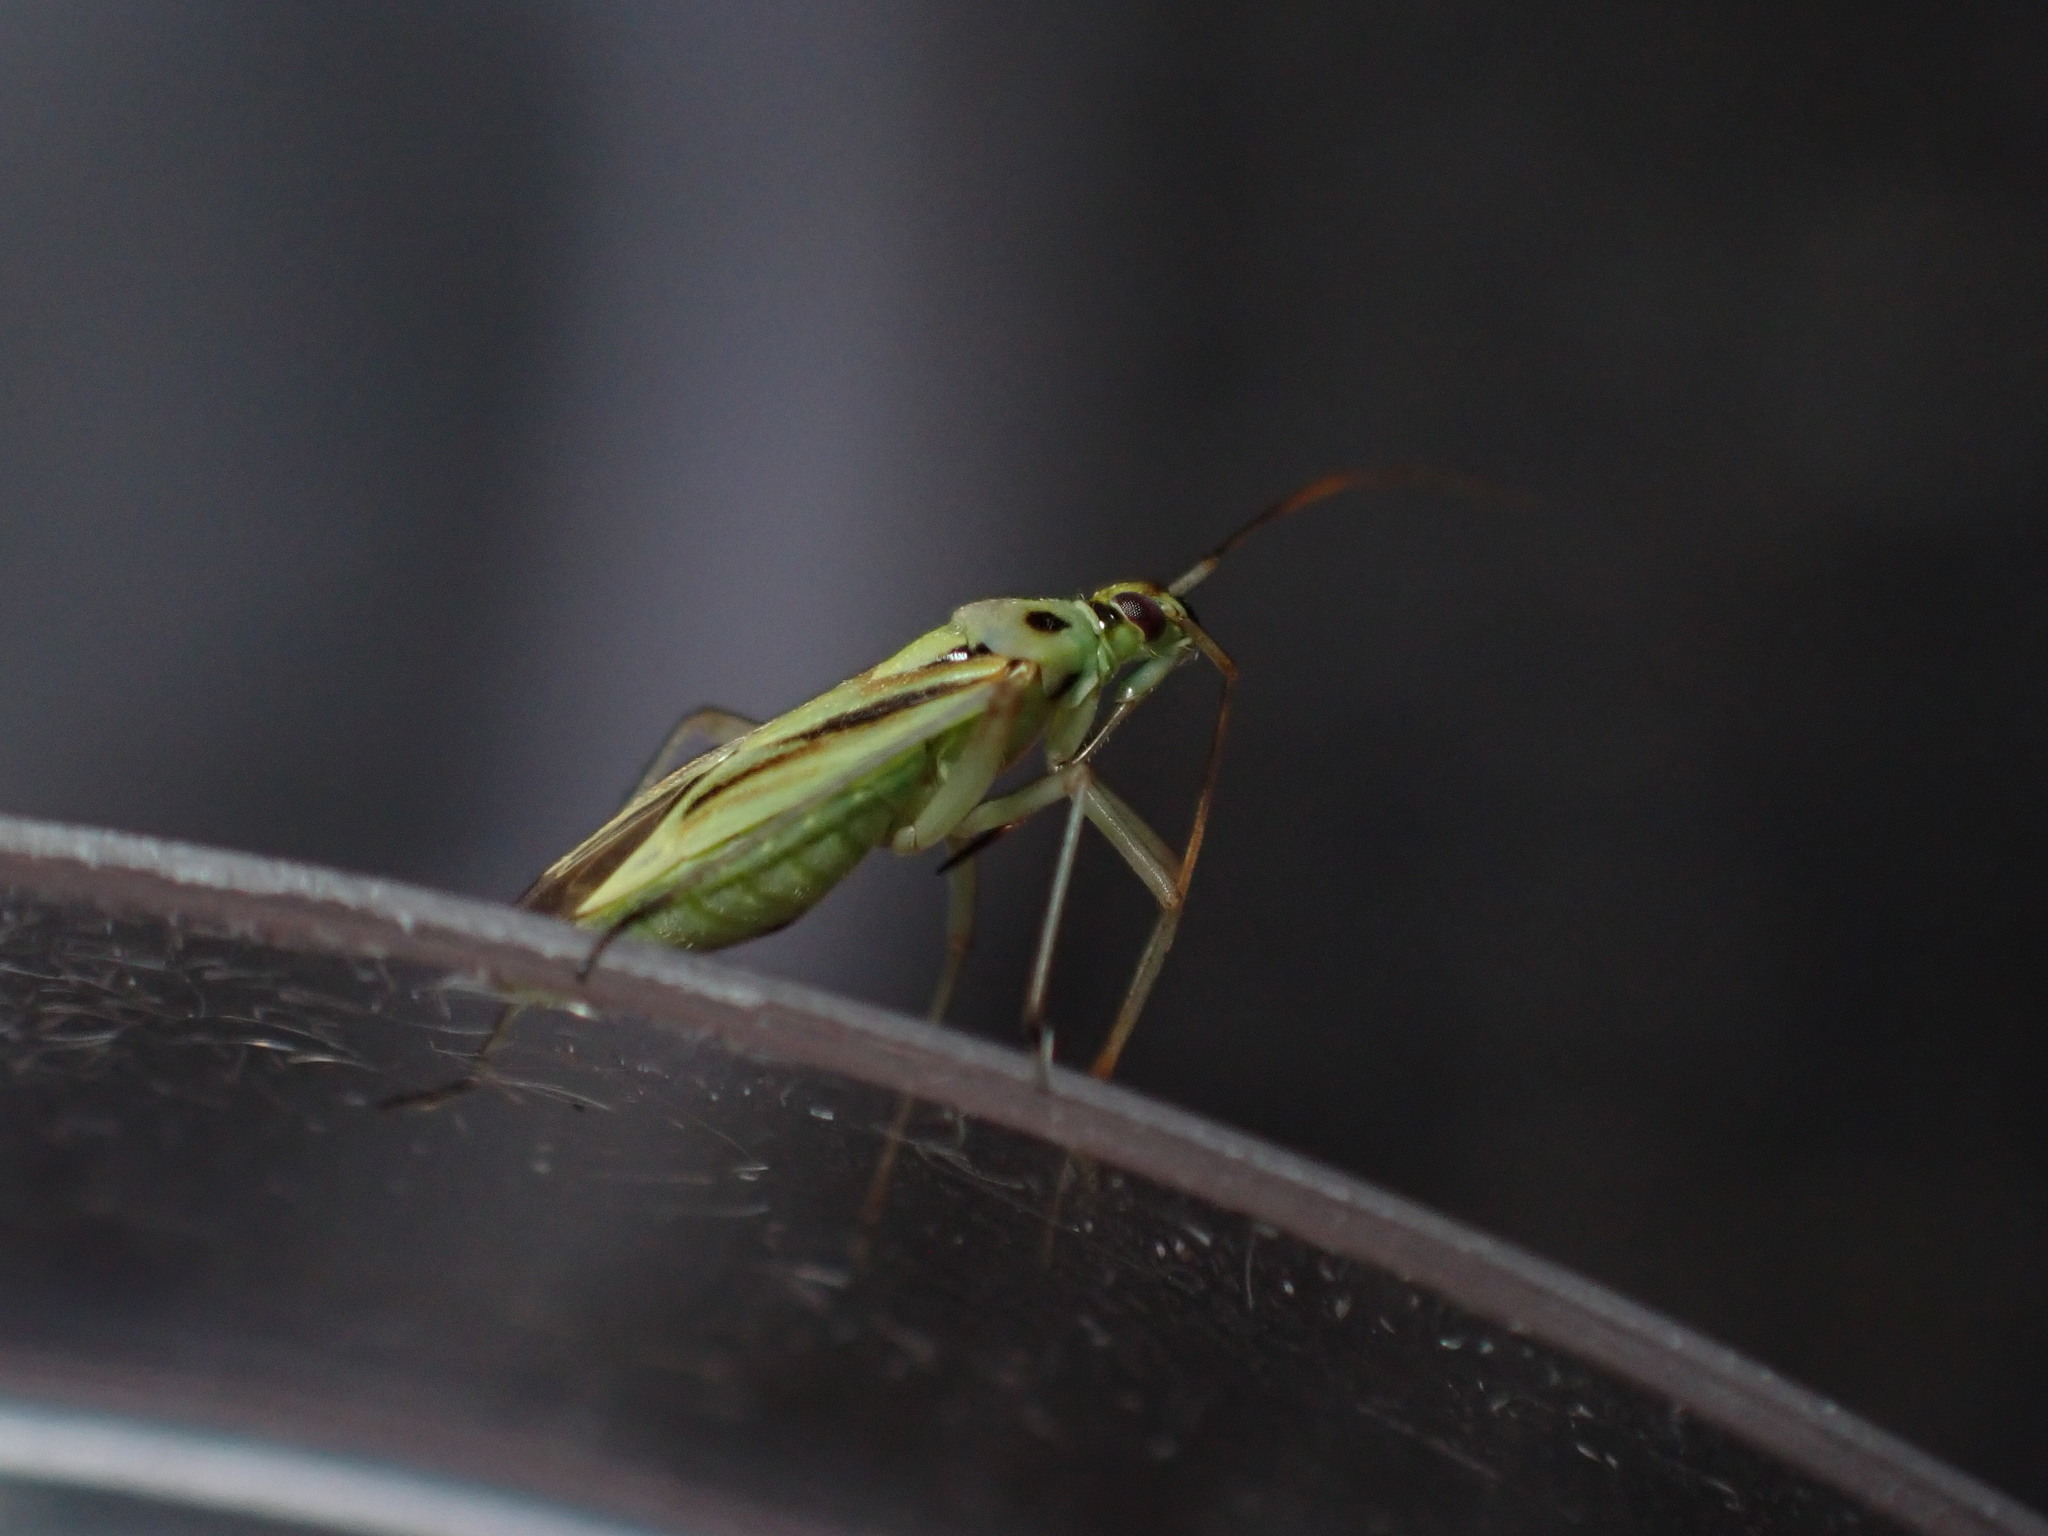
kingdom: Animalia
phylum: Arthropoda
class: Insecta
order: Hemiptera
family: Miridae
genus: Stenotus
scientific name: Stenotus binotatus
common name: Plant bug
